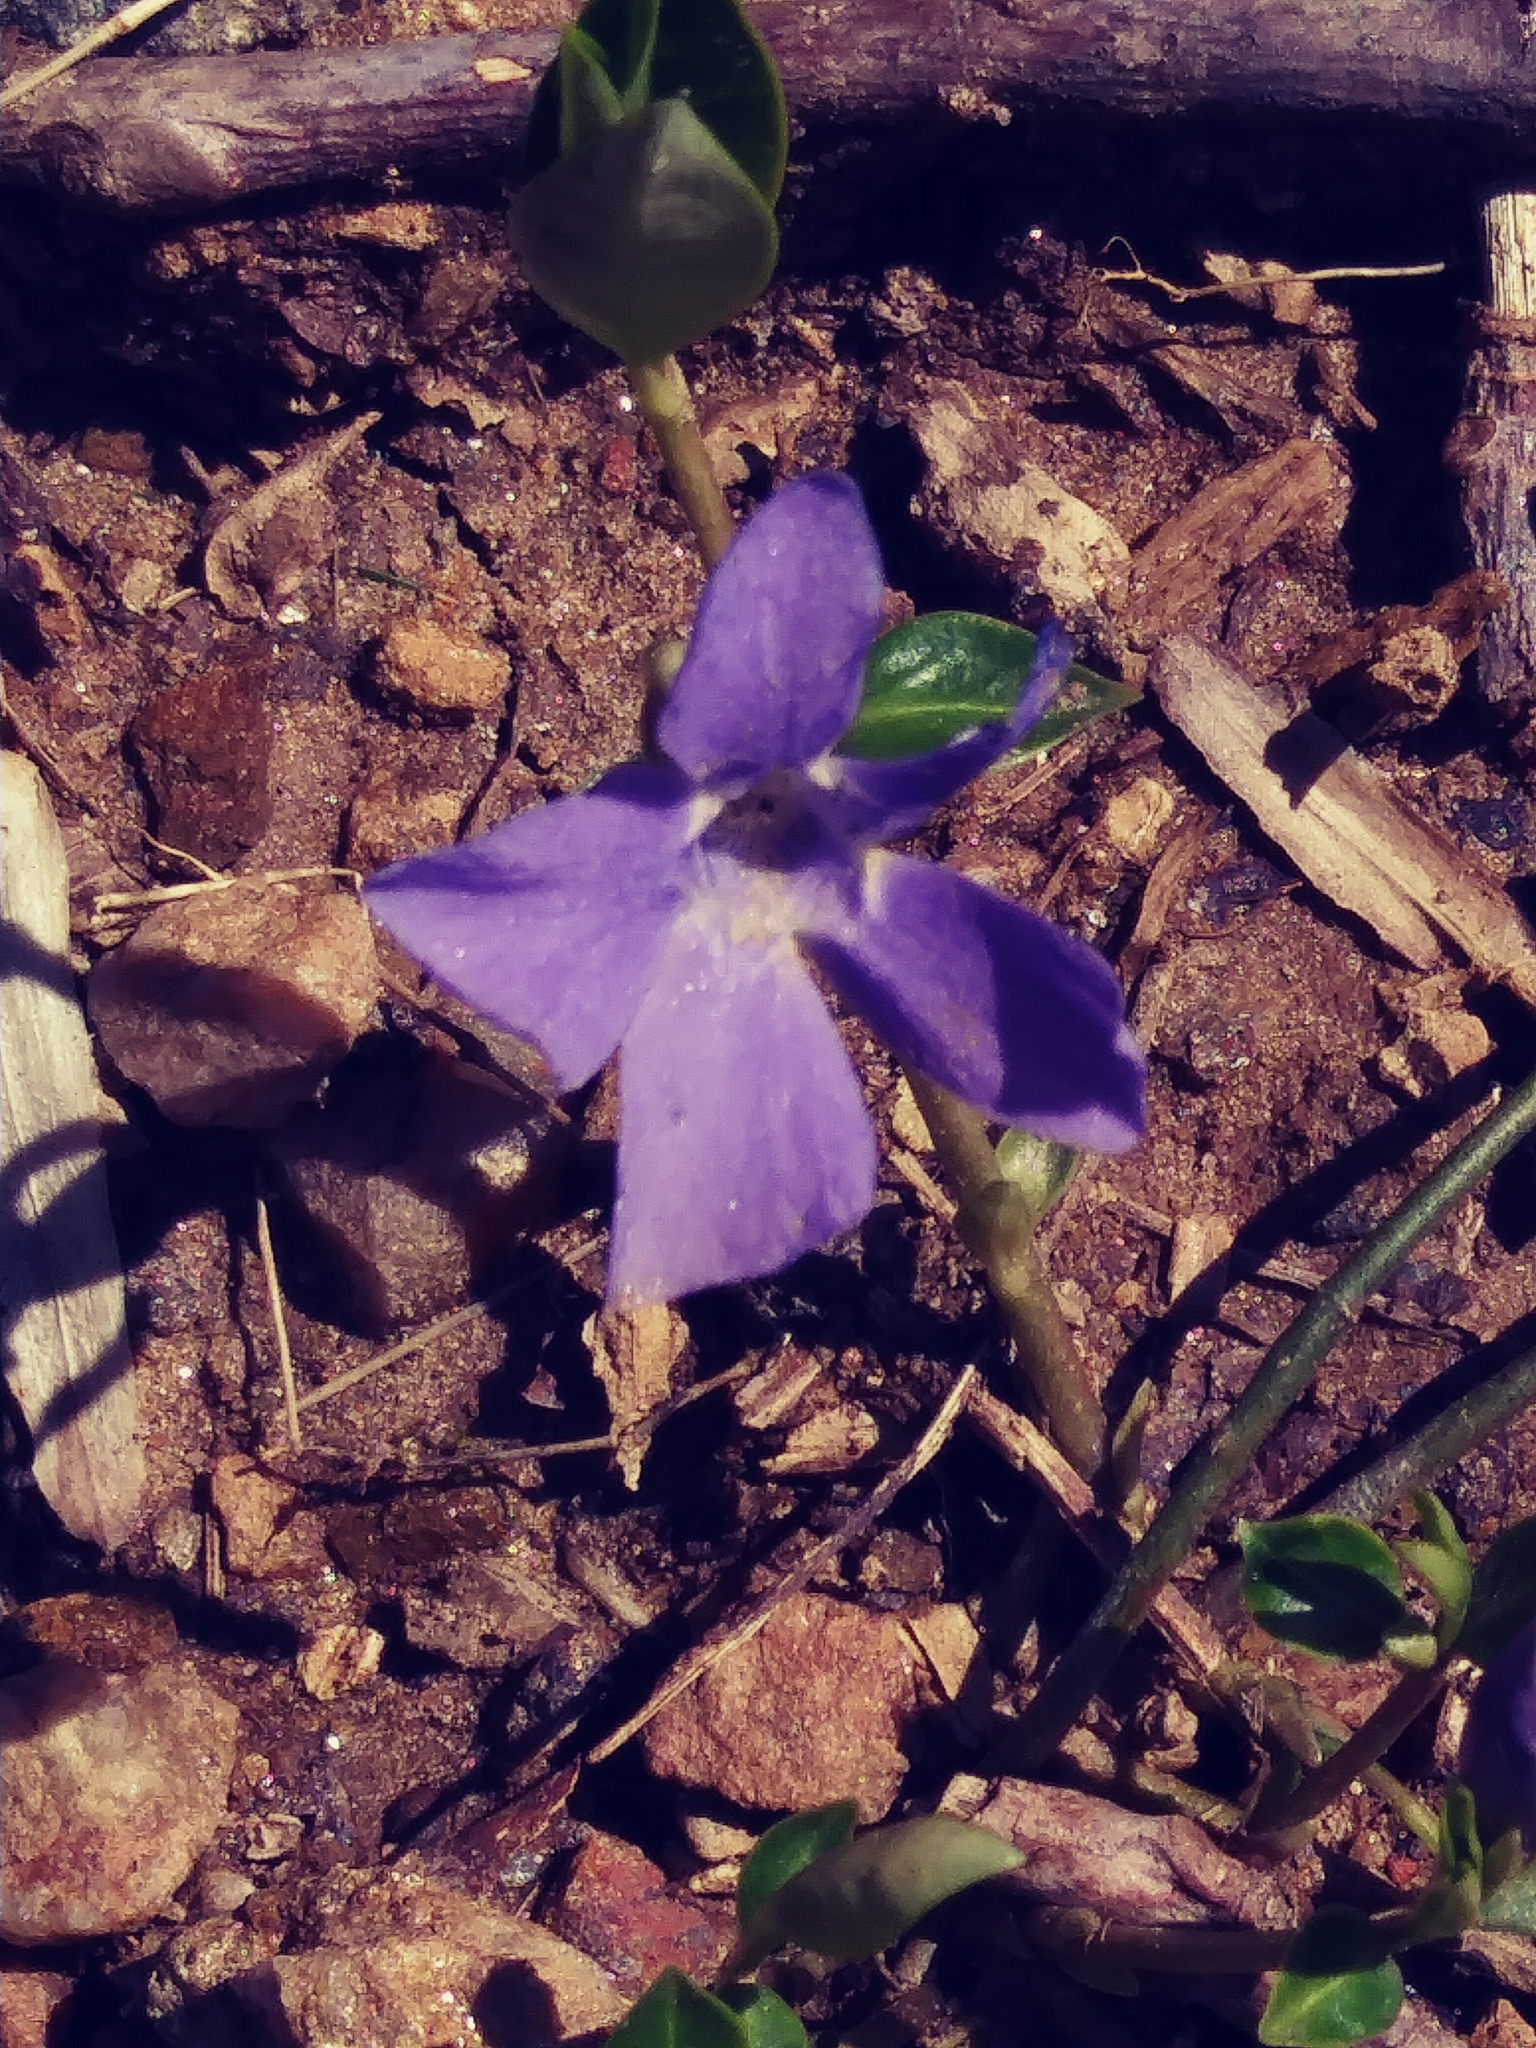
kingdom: Plantae
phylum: Tracheophyta
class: Magnoliopsida
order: Gentianales
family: Apocynaceae
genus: Vinca
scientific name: Vinca minor
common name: Lesser periwinkle
